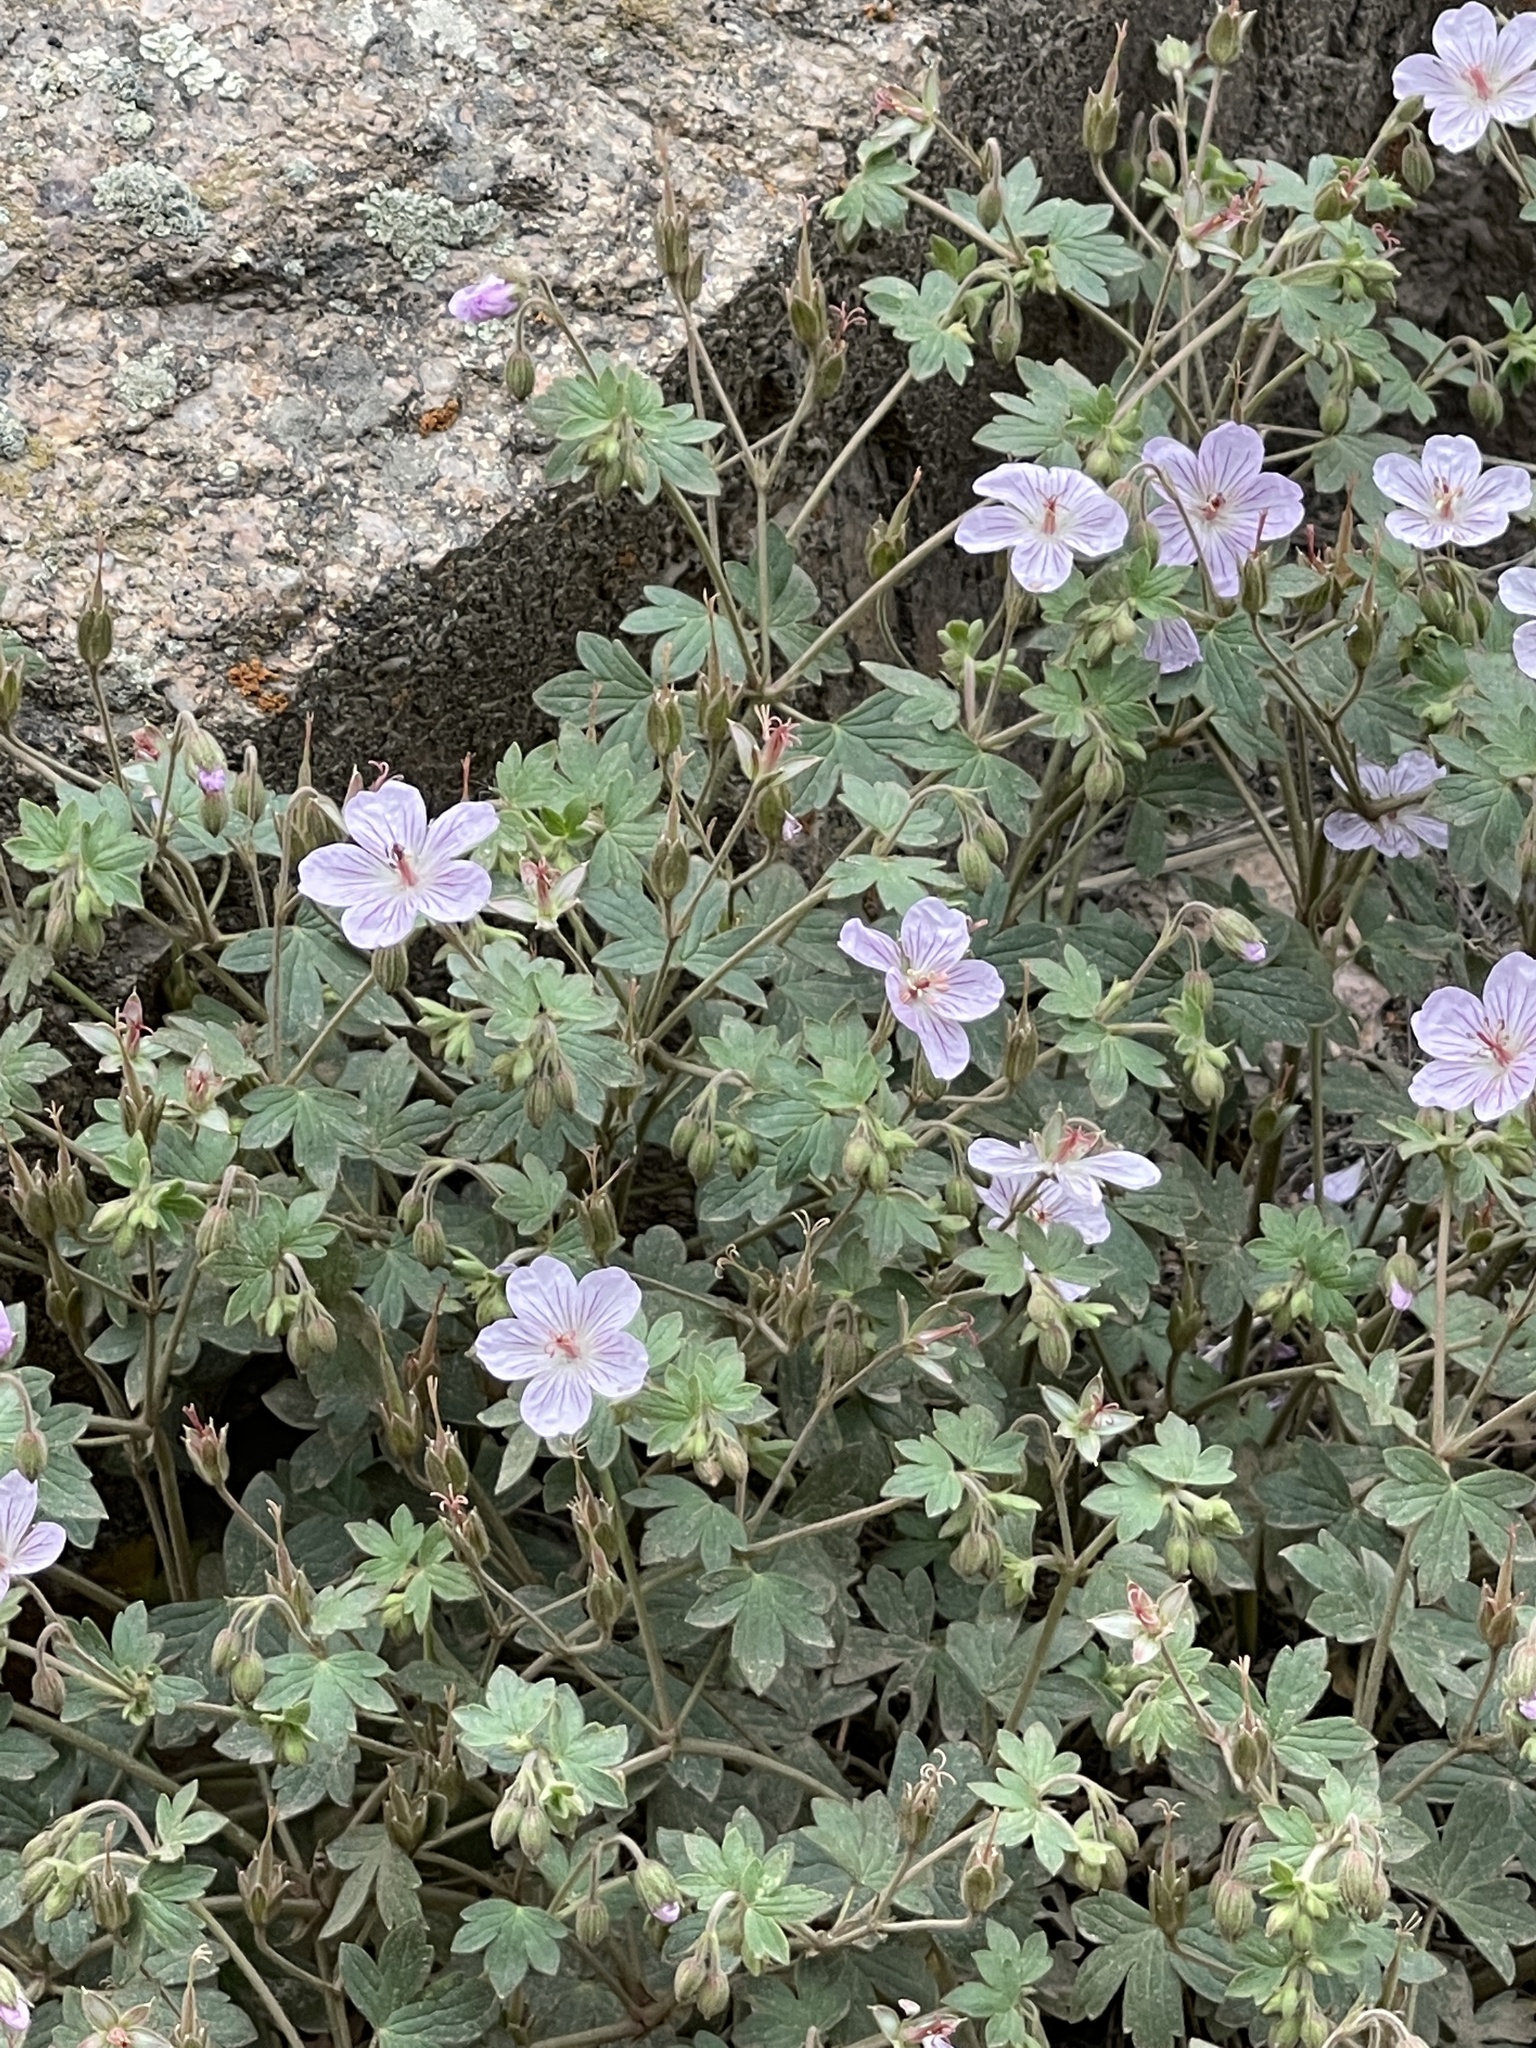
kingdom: Plantae
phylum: Tracheophyta
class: Magnoliopsida
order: Geraniales
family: Geraniaceae
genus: Geranium
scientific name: Geranium caespitosum
